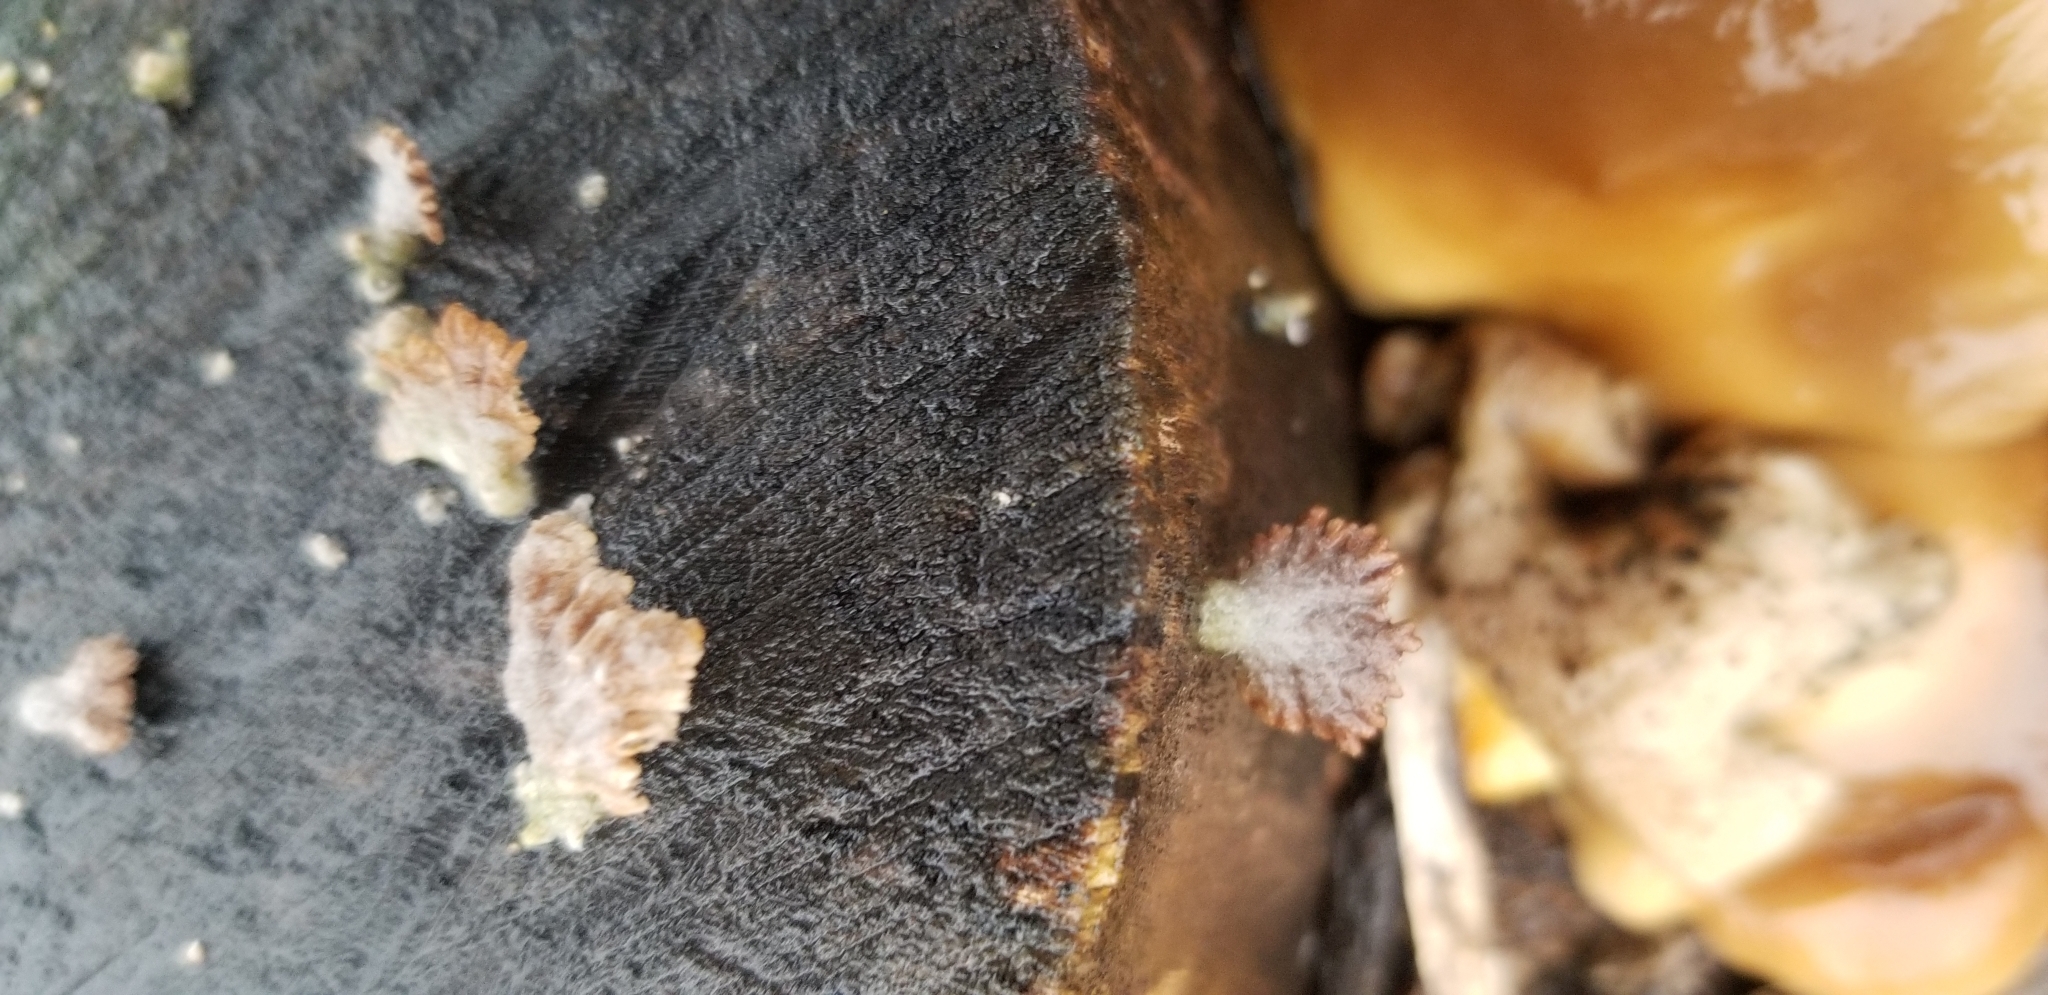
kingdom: Fungi
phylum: Basidiomycota
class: Agaricomycetes
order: Agaricales
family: Schizophyllaceae
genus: Schizophyllum
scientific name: Schizophyllum commune
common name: Common porecrust
